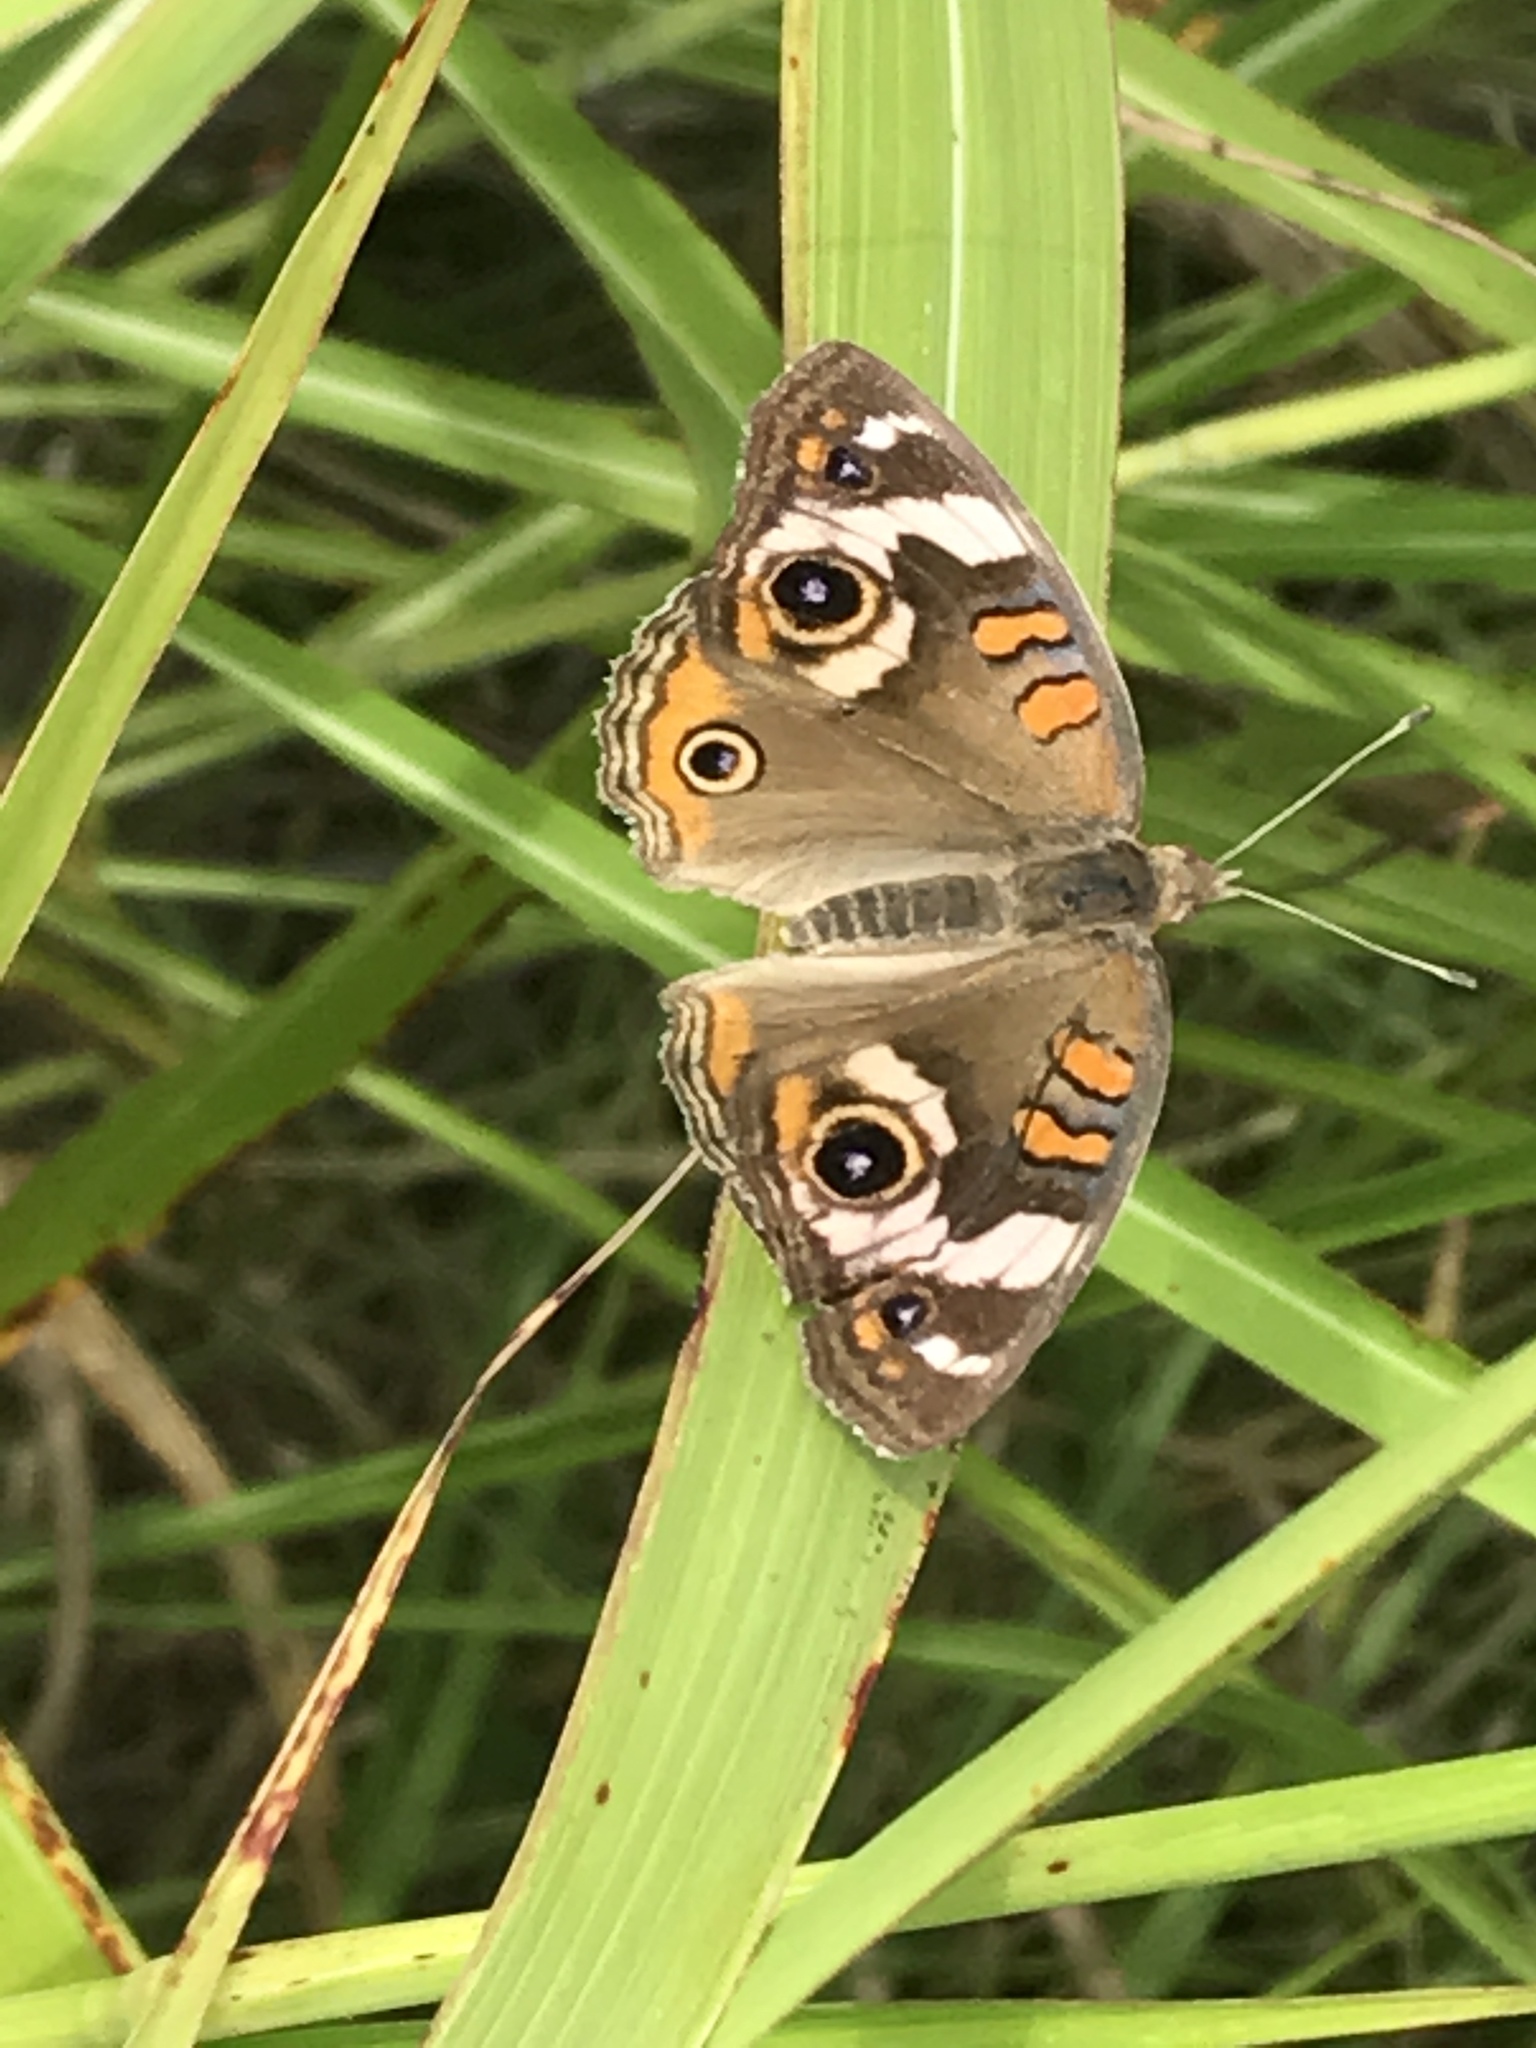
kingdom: Animalia
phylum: Arthropoda
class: Insecta
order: Lepidoptera
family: Nymphalidae
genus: Junonia
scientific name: Junonia coenia
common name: Common buckeye
